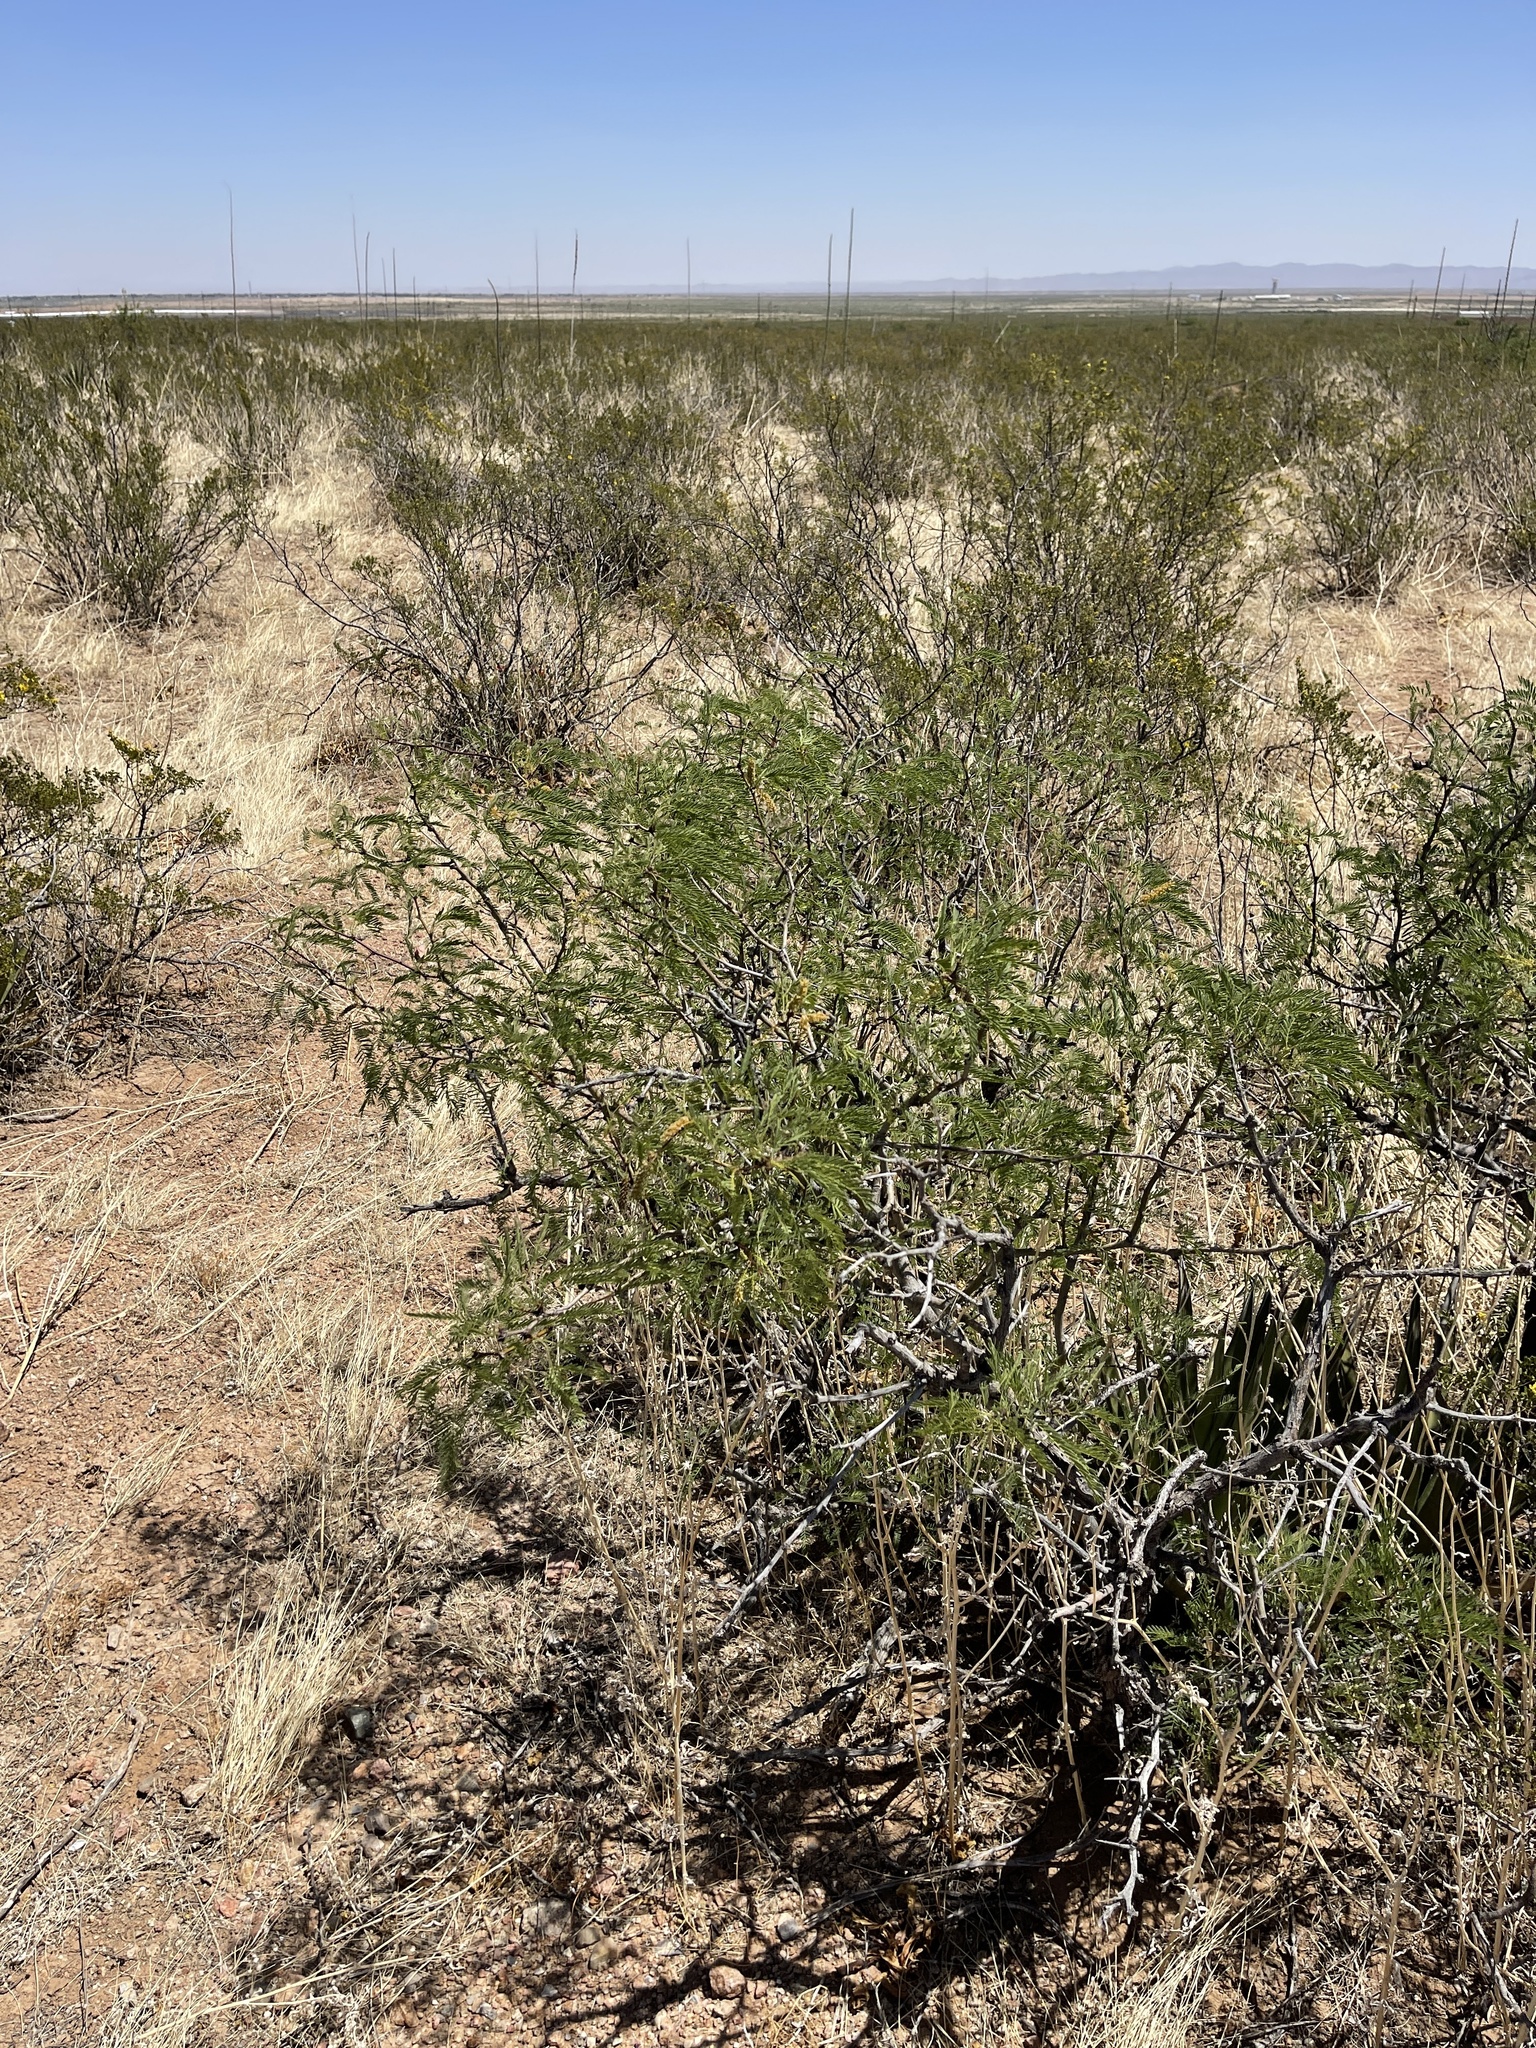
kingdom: Plantae
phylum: Tracheophyta
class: Magnoliopsida
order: Fabales
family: Fabaceae
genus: Prosopis
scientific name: Prosopis pubescens
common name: Screw-bean
